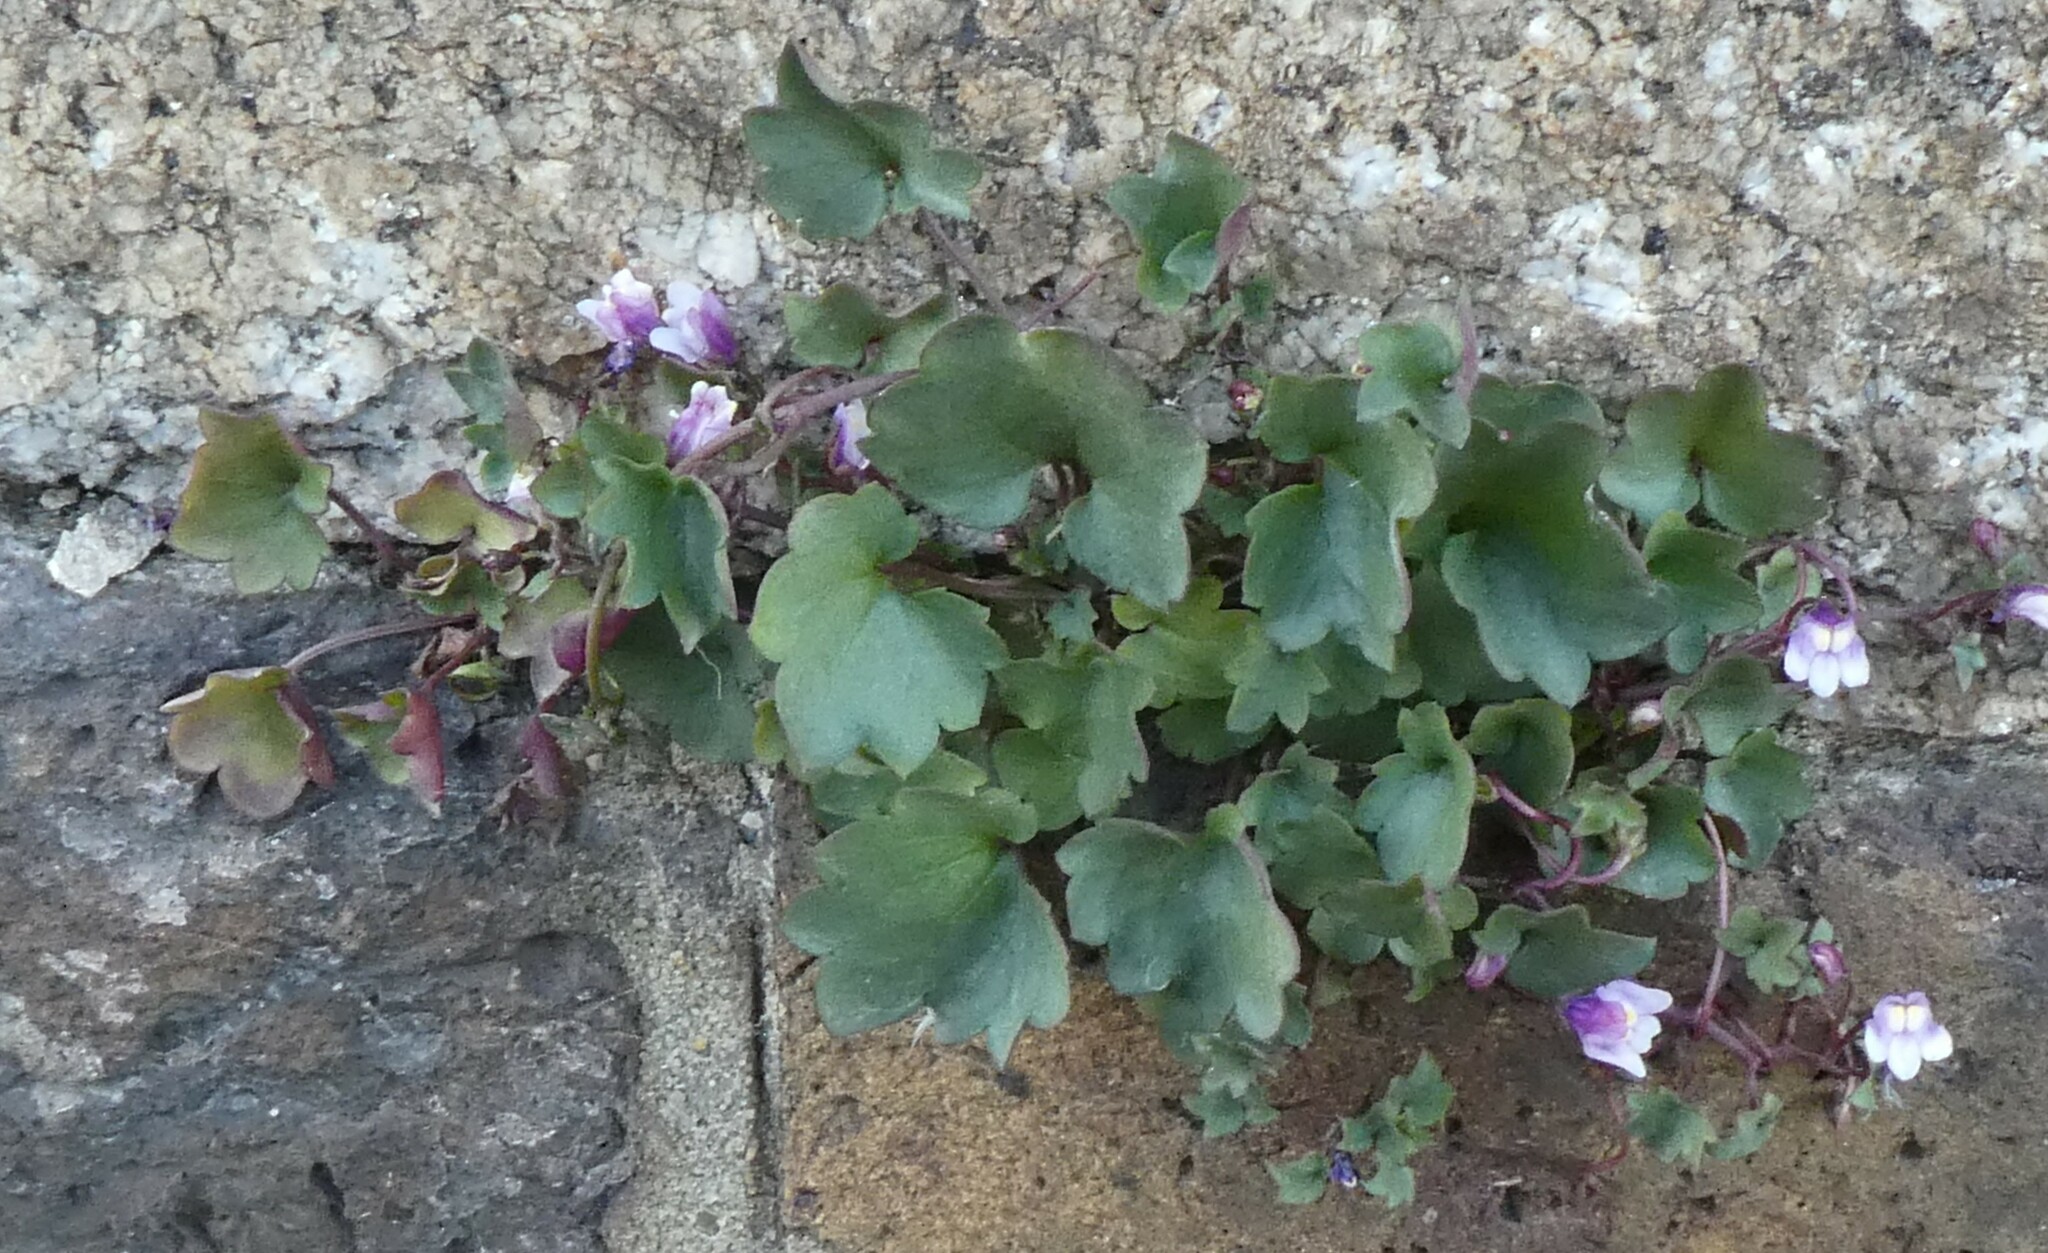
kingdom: Plantae
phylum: Tracheophyta
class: Magnoliopsida
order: Lamiales
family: Plantaginaceae
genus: Cymbalaria
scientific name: Cymbalaria muralis
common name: Ivy-leaved toadflax
